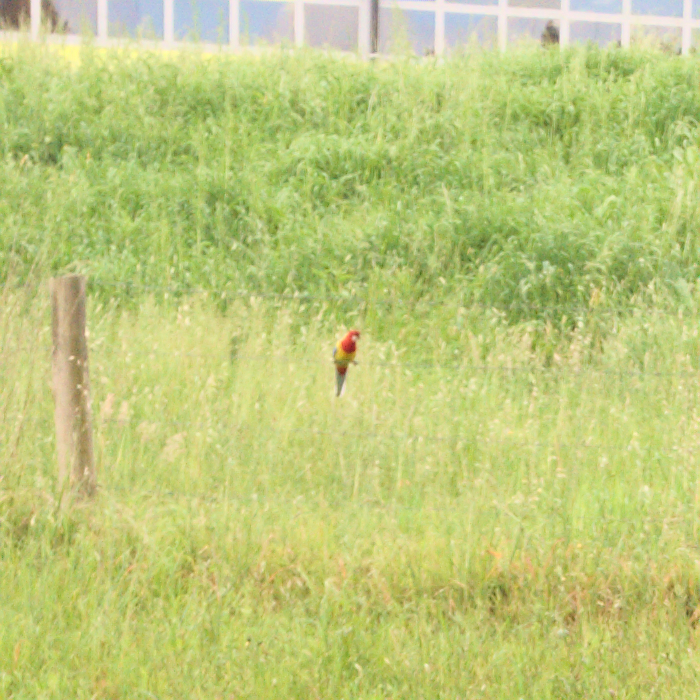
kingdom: Animalia
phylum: Chordata
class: Aves
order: Psittaciformes
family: Psittacidae
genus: Platycercus
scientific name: Platycercus eximius
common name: Eastern rosella
